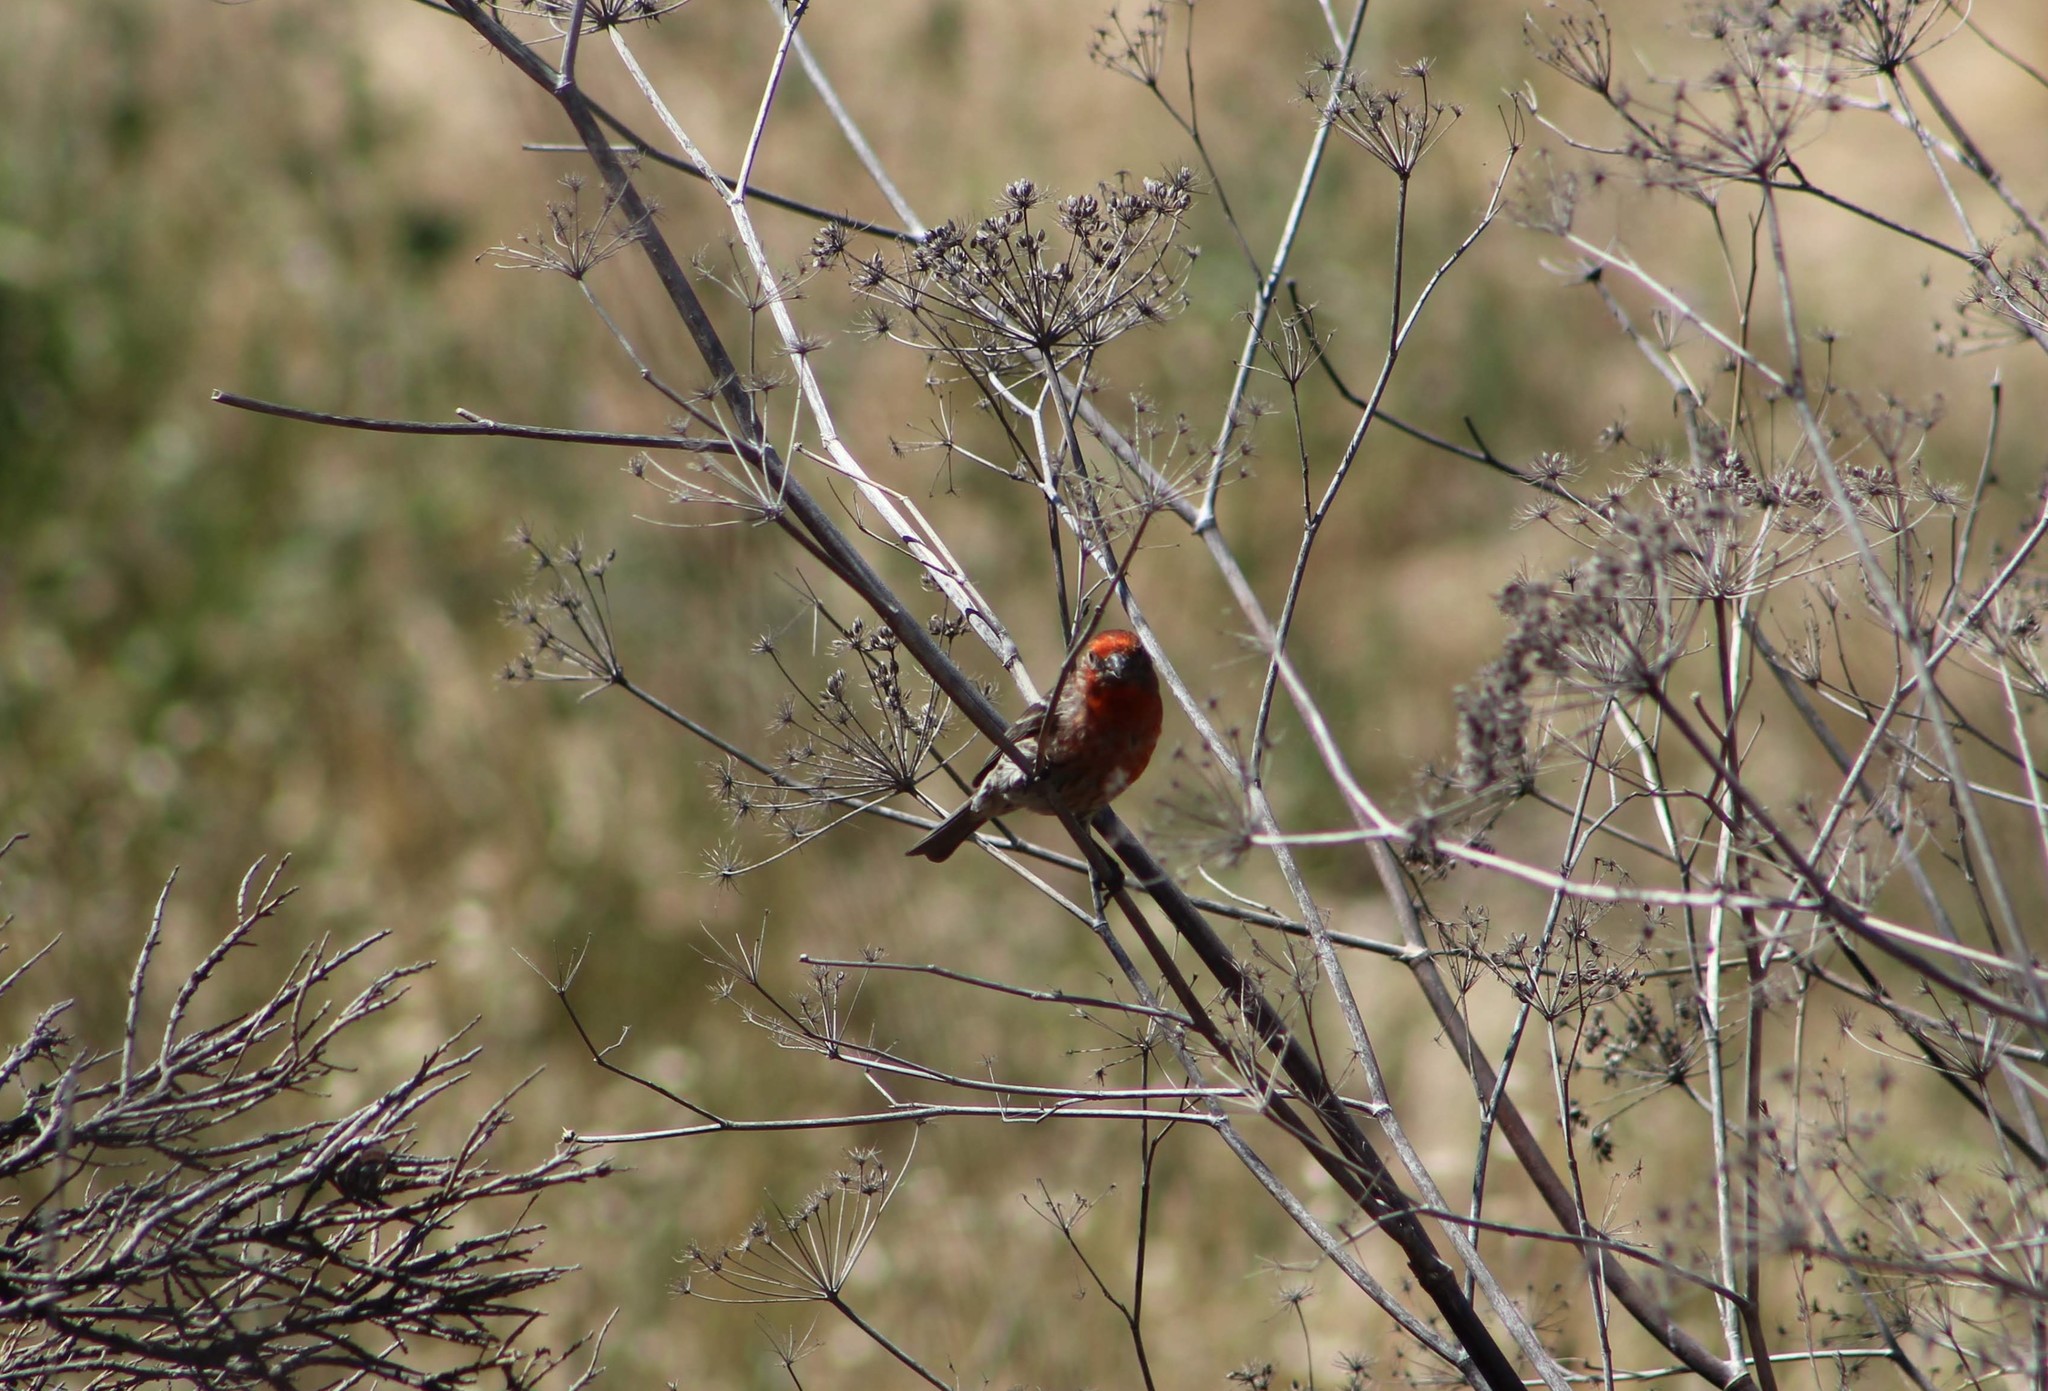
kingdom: Animalia
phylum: Chordata
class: Aves
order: Passeriformes
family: Fringillidae
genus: Haemorhous
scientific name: Haemorhous mexicanus
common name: House finch
